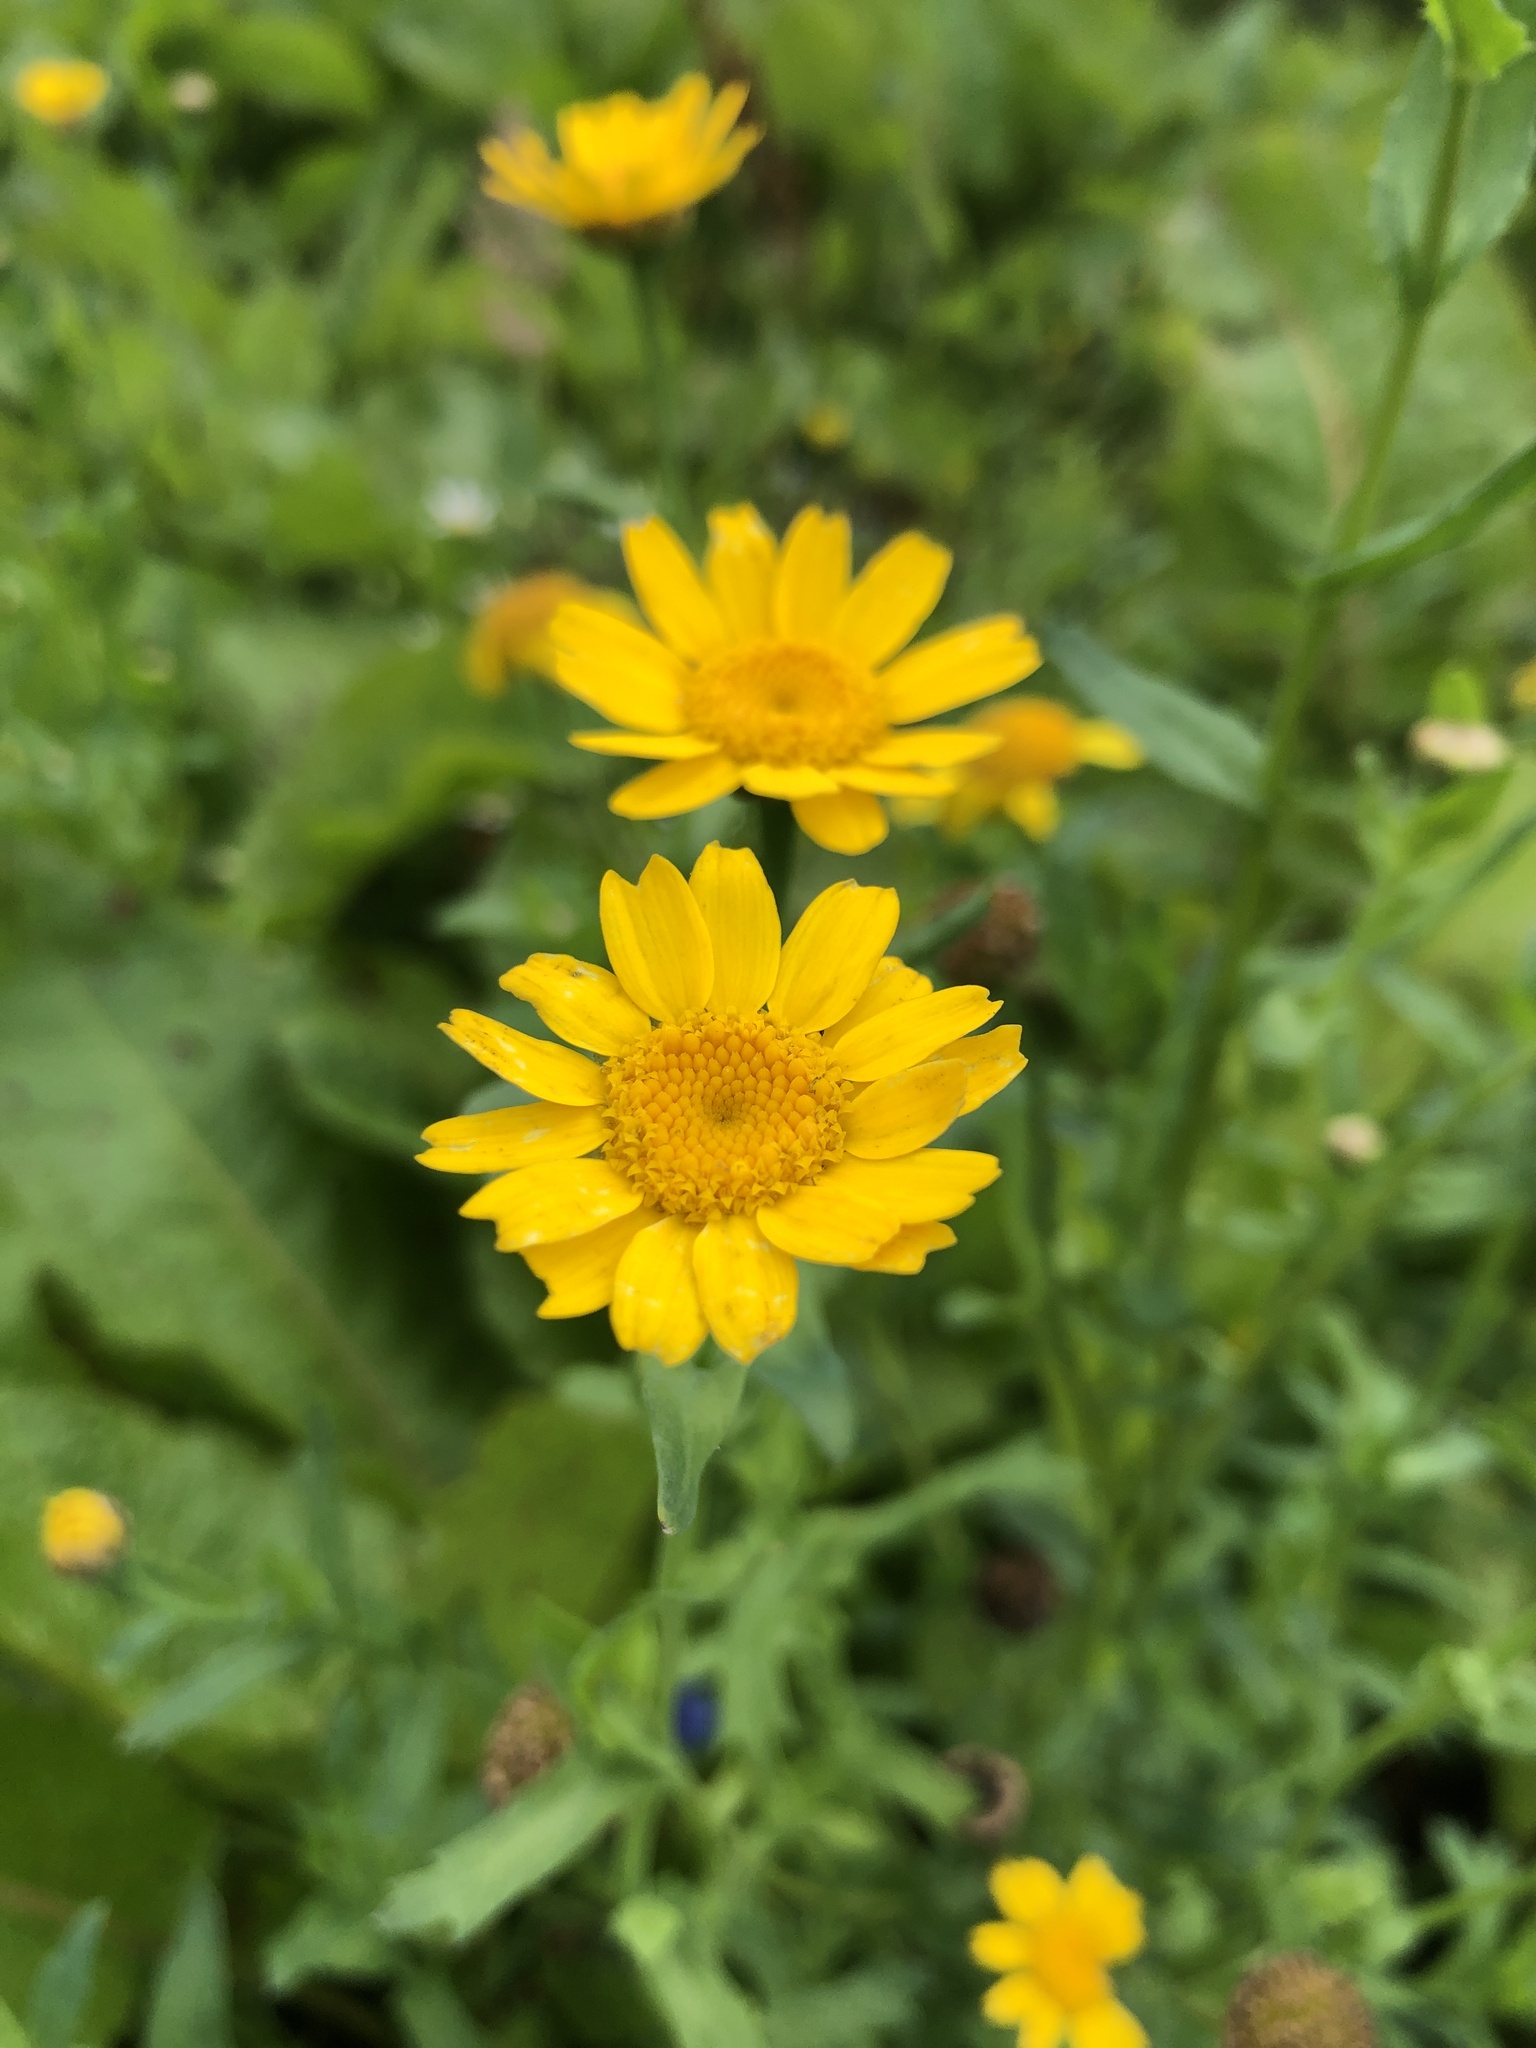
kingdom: Plantae
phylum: Tracheophyta
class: Magnoliopsida
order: Asterales
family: Asteraceae
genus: Glebionis
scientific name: Glebionis segetum
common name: Corndaisy
